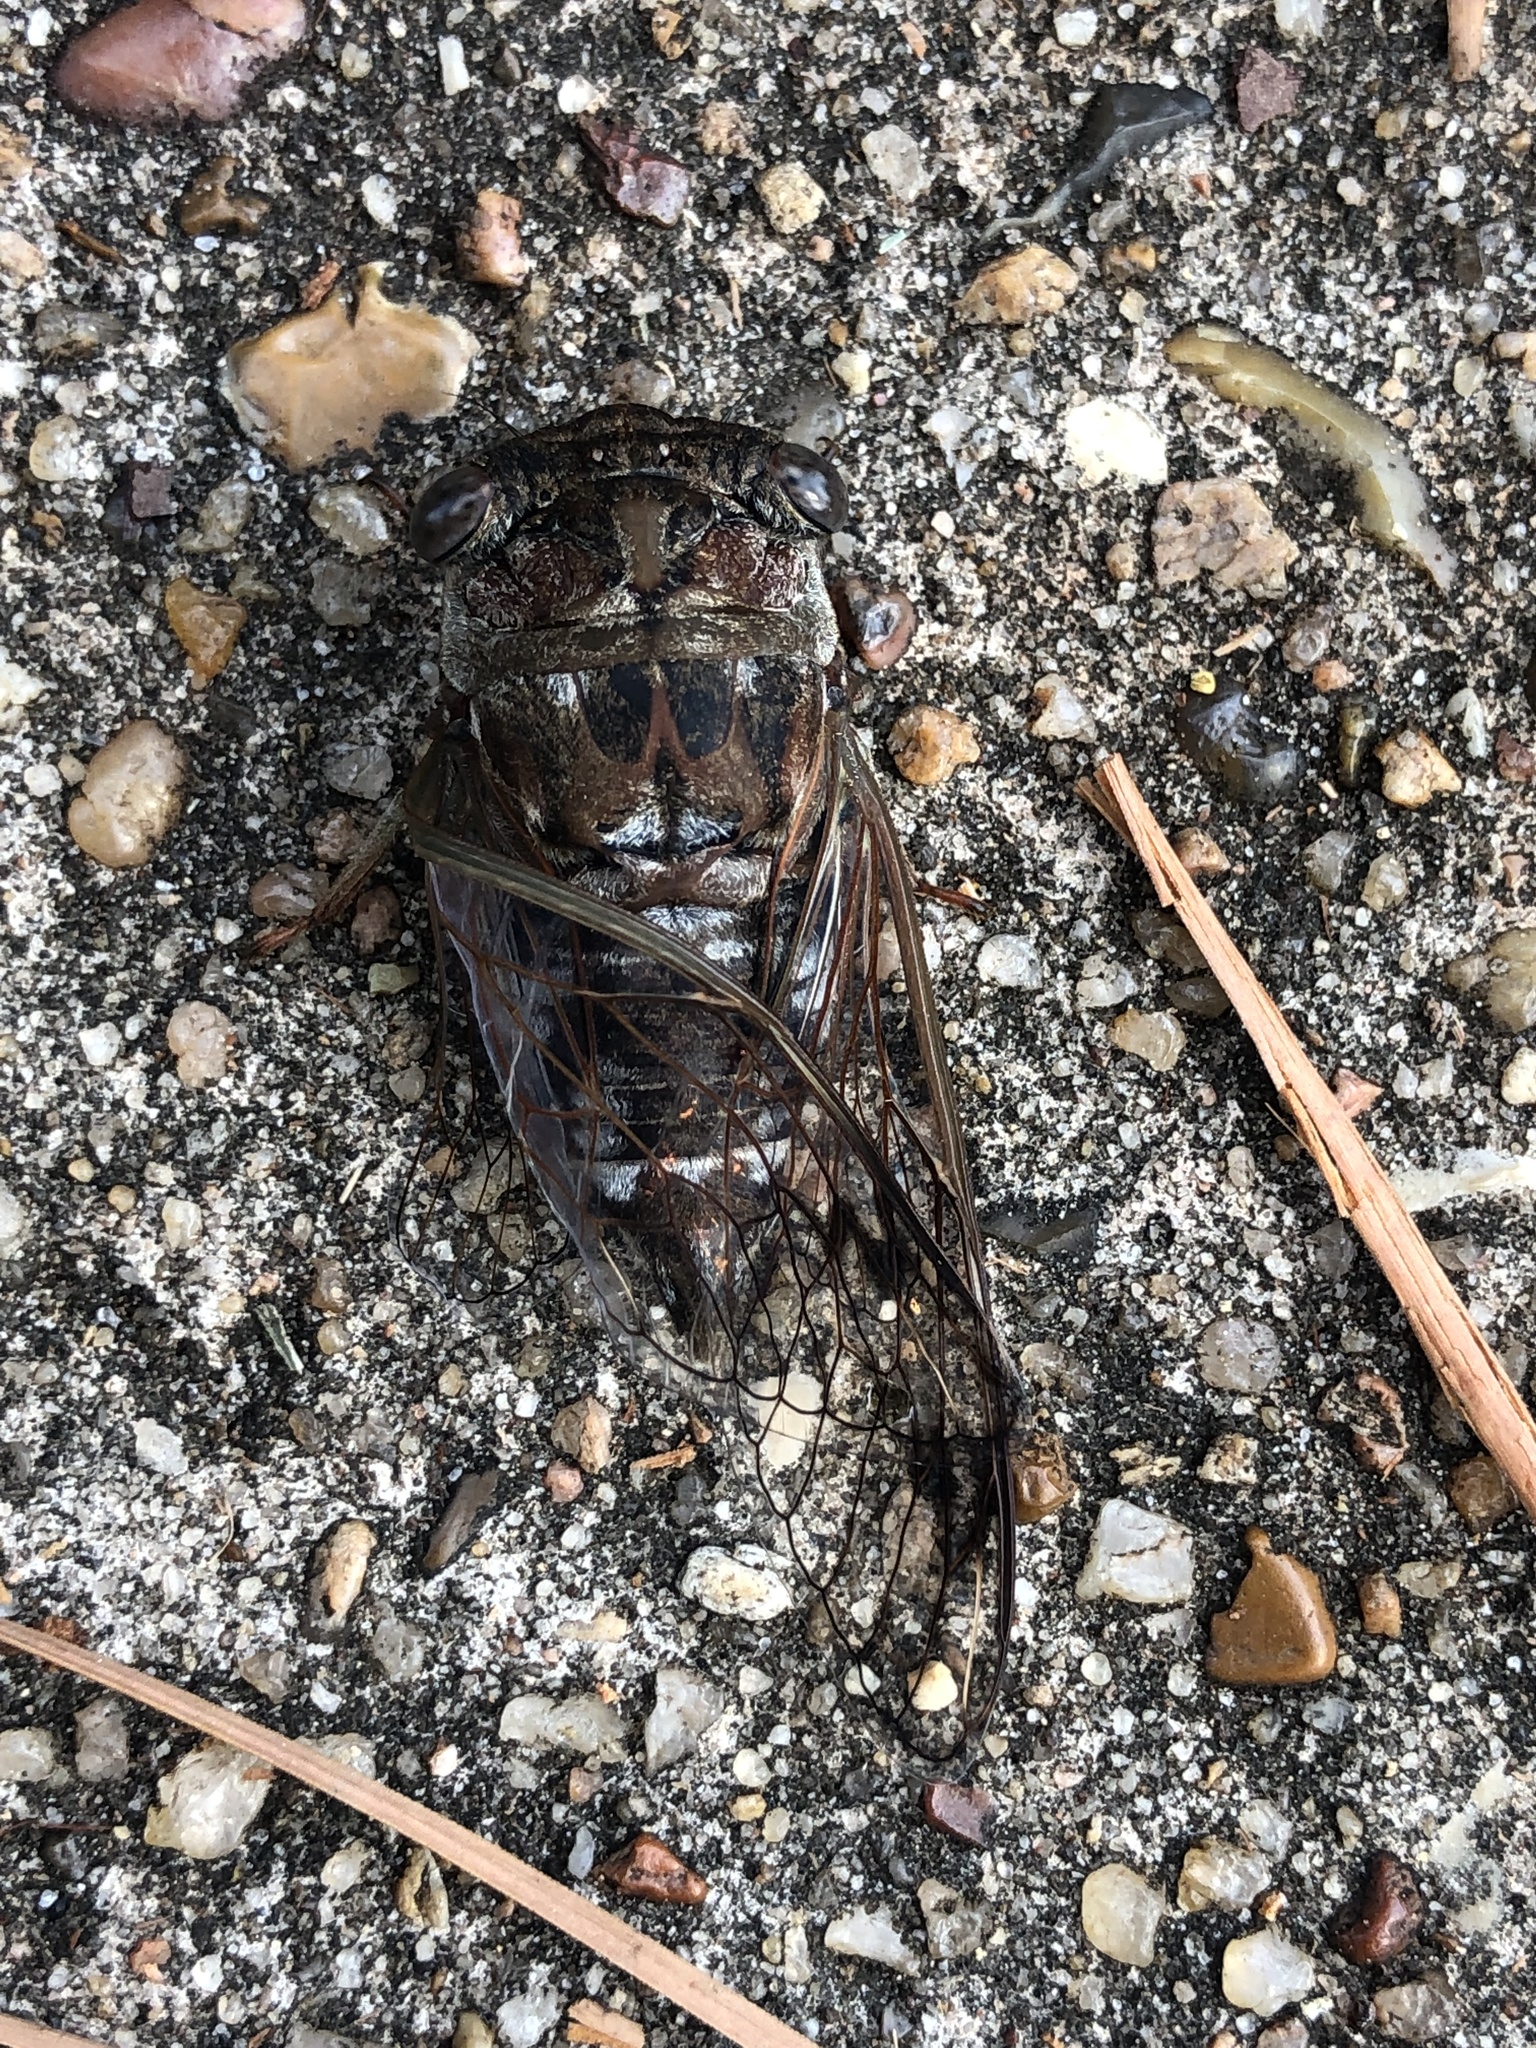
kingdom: Animalia
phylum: Arthropoda
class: Insecta
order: Hemiptera
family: Cicadidae
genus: Neotibicen
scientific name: Neotibicen davisi
